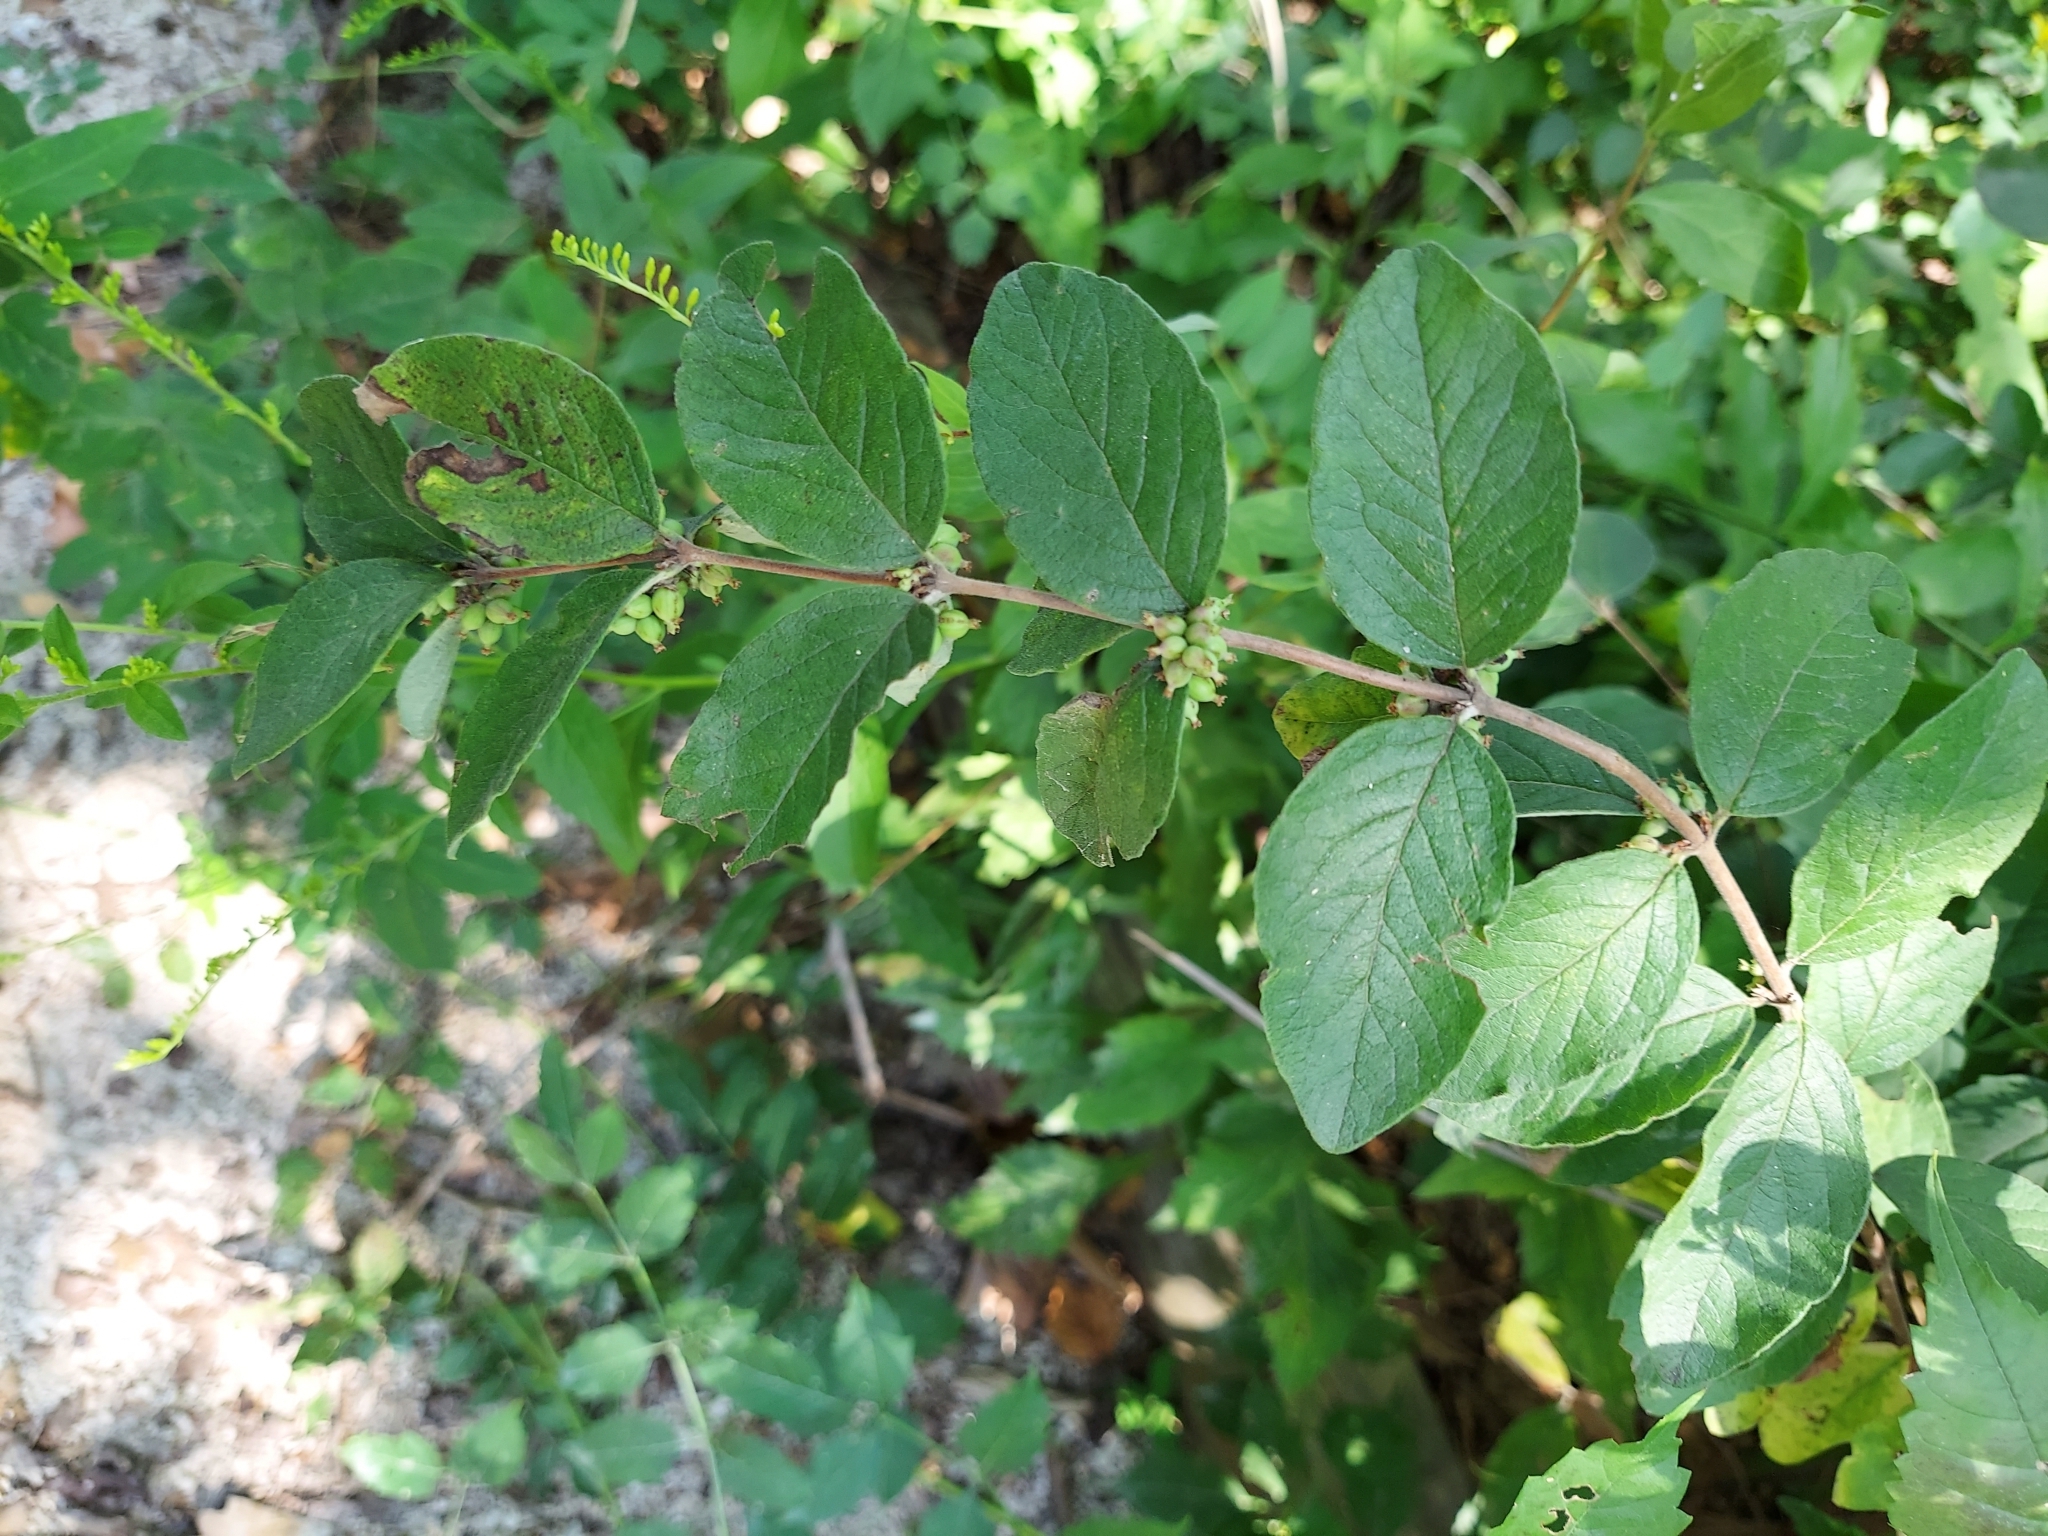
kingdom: Plantae
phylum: Tracheophyta
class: Magnoliopsida
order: Dipsacales
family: Caprifoliaceae
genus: Symphoricarpos
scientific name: Symphoricarpos orbiculatus
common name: Coralberry
